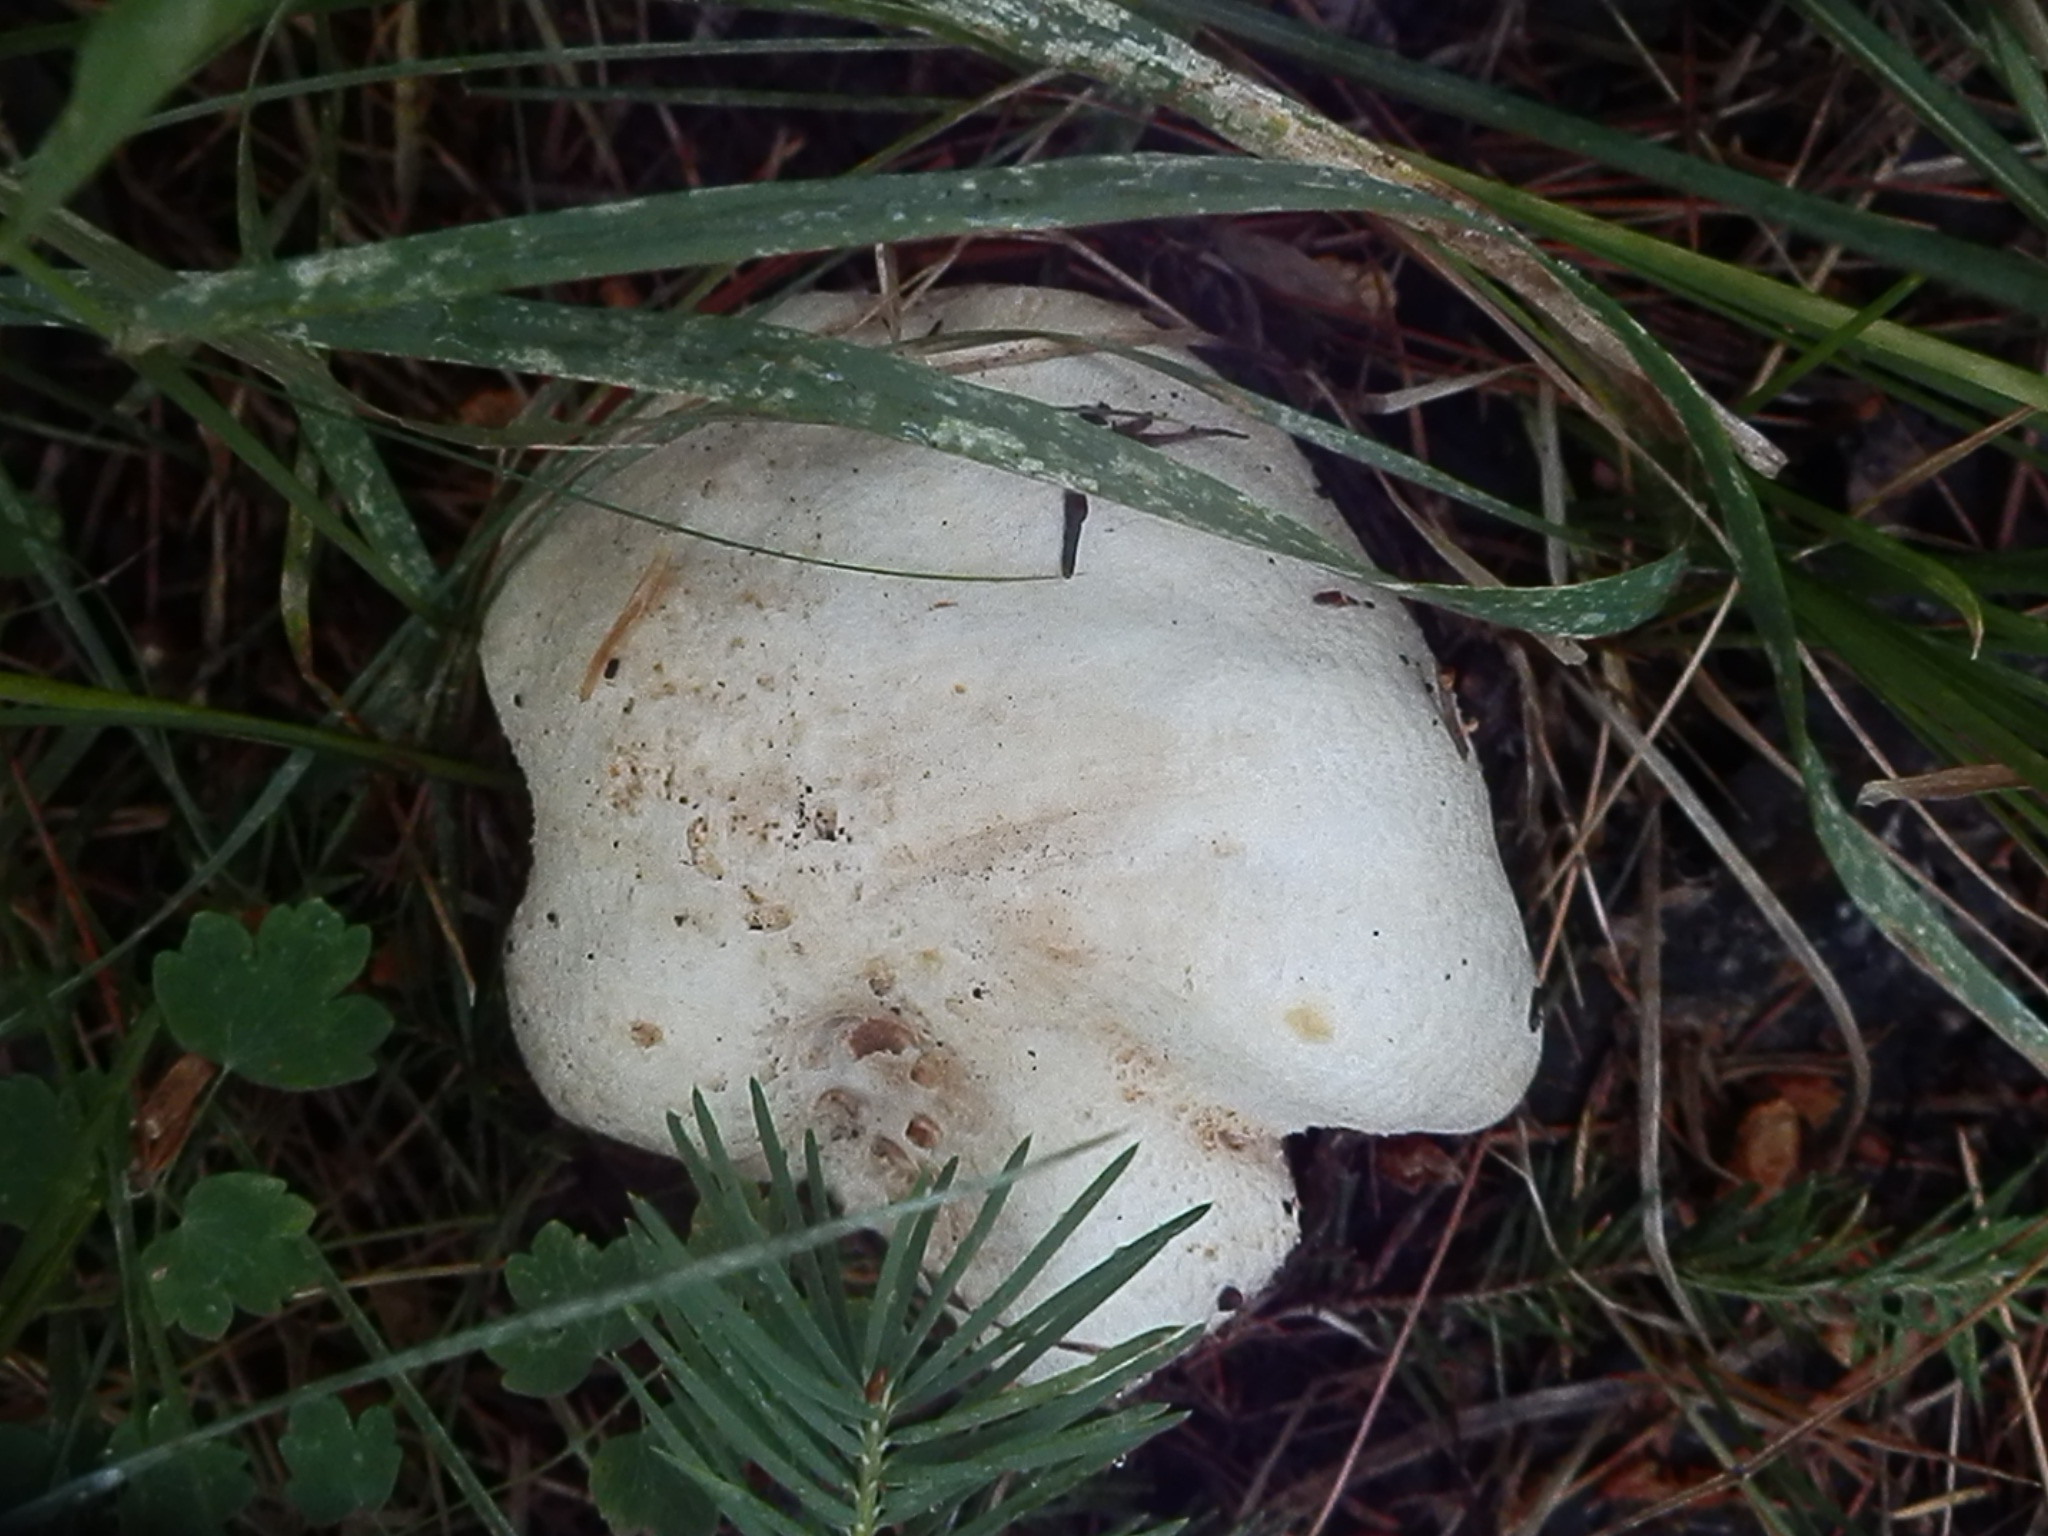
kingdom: Fungi
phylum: Basidiomycota
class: Agaricomycetes
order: Agaricales
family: Agaricaceae
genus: Agaricus
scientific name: Agaricus gemellatus
